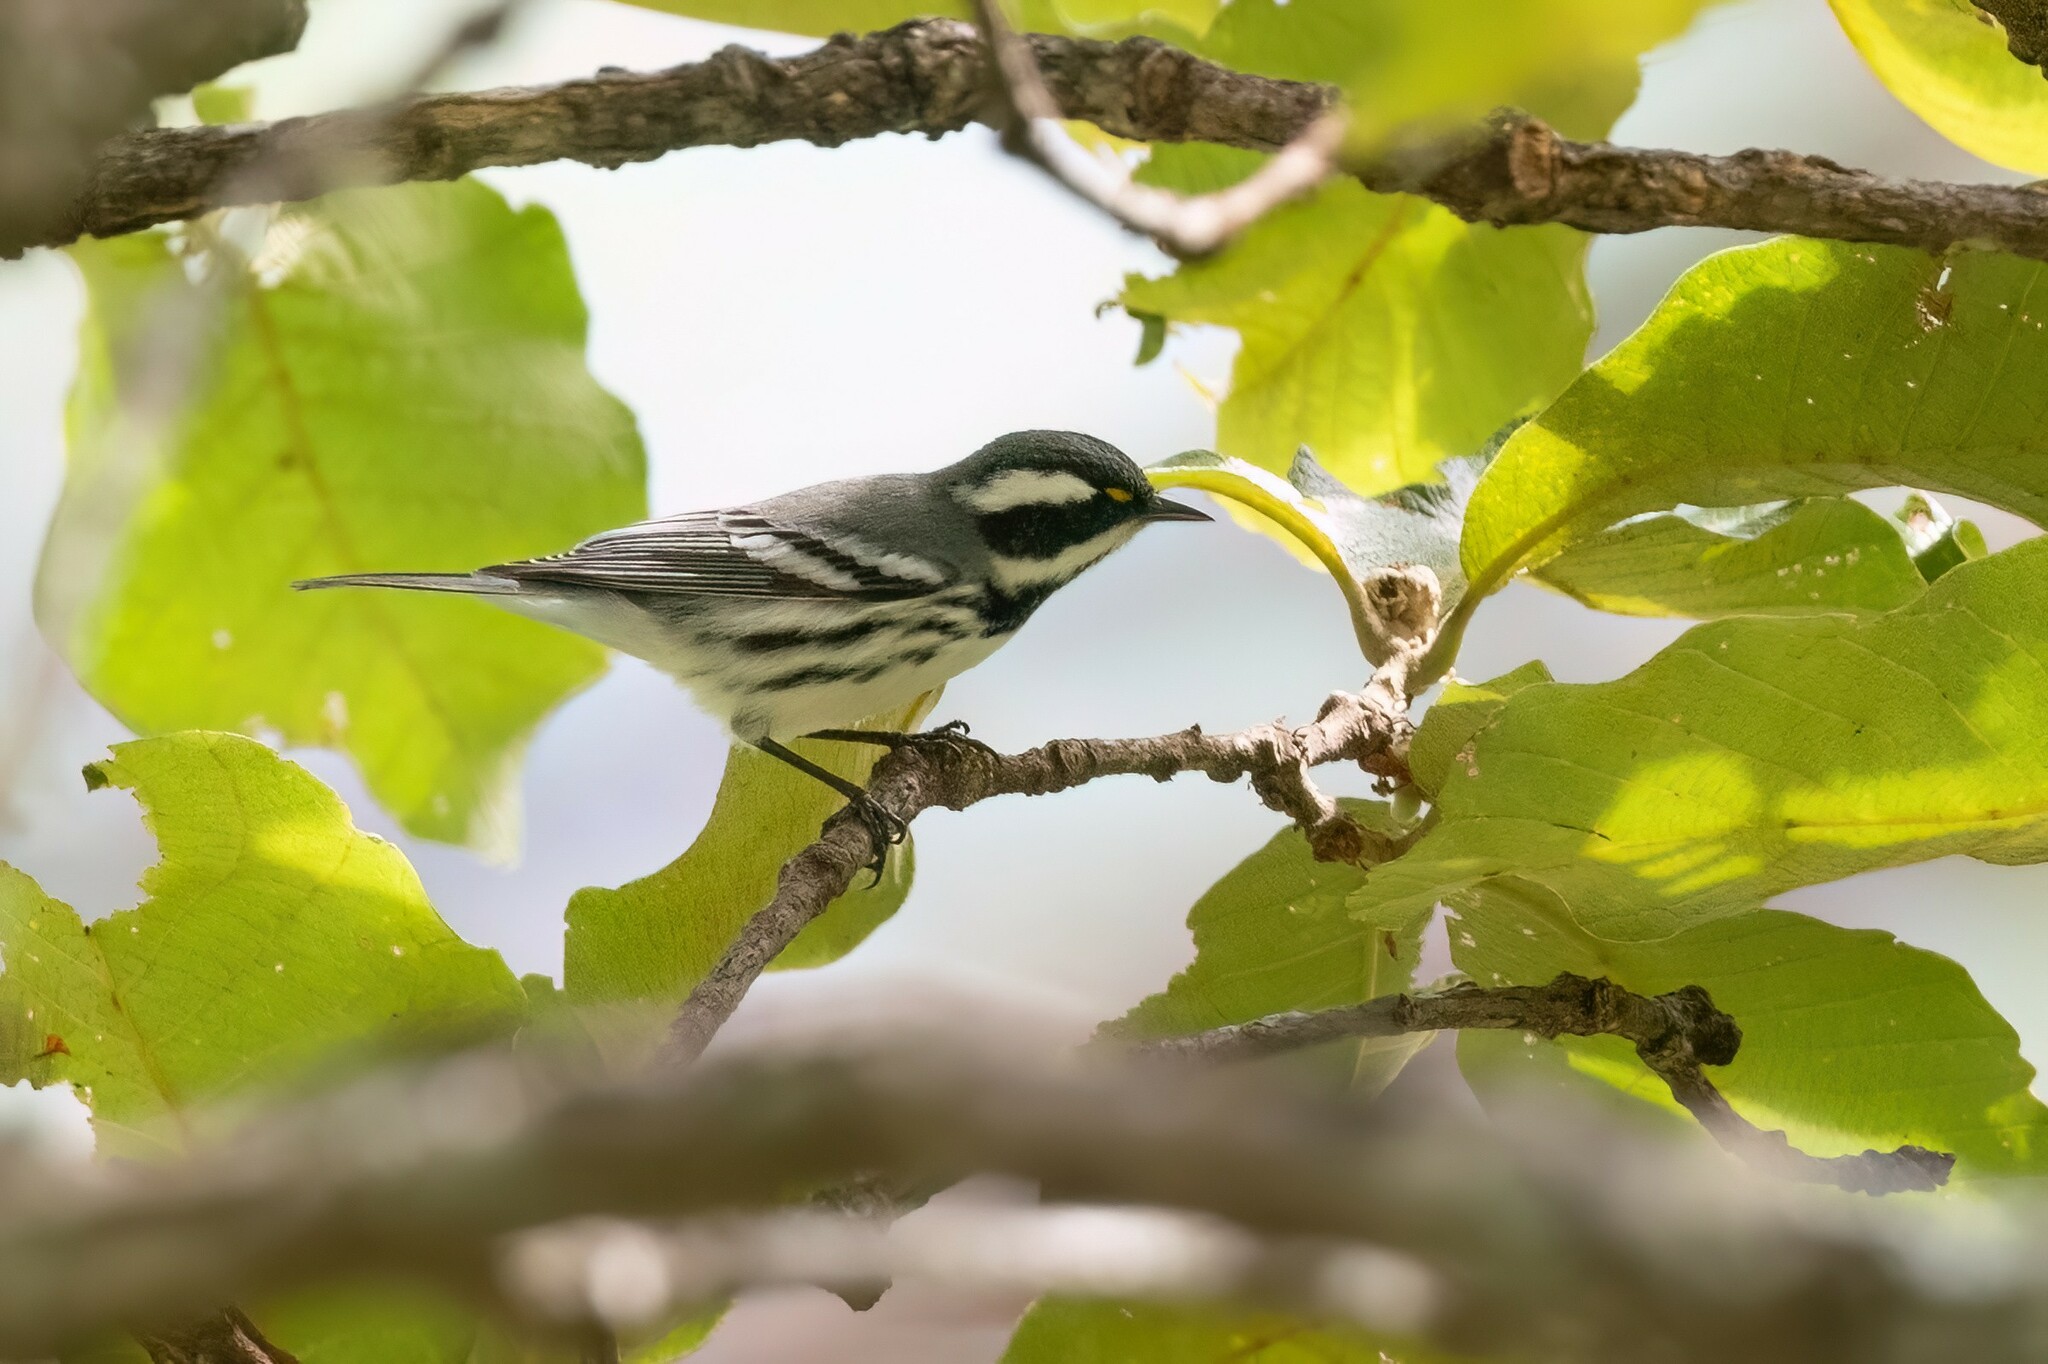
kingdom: Animalia
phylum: Chordata
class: Aves
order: Passeriformes
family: Parulidae
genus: Setophaga
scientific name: Setophaga nigrescens
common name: Black-throated gray warbler
